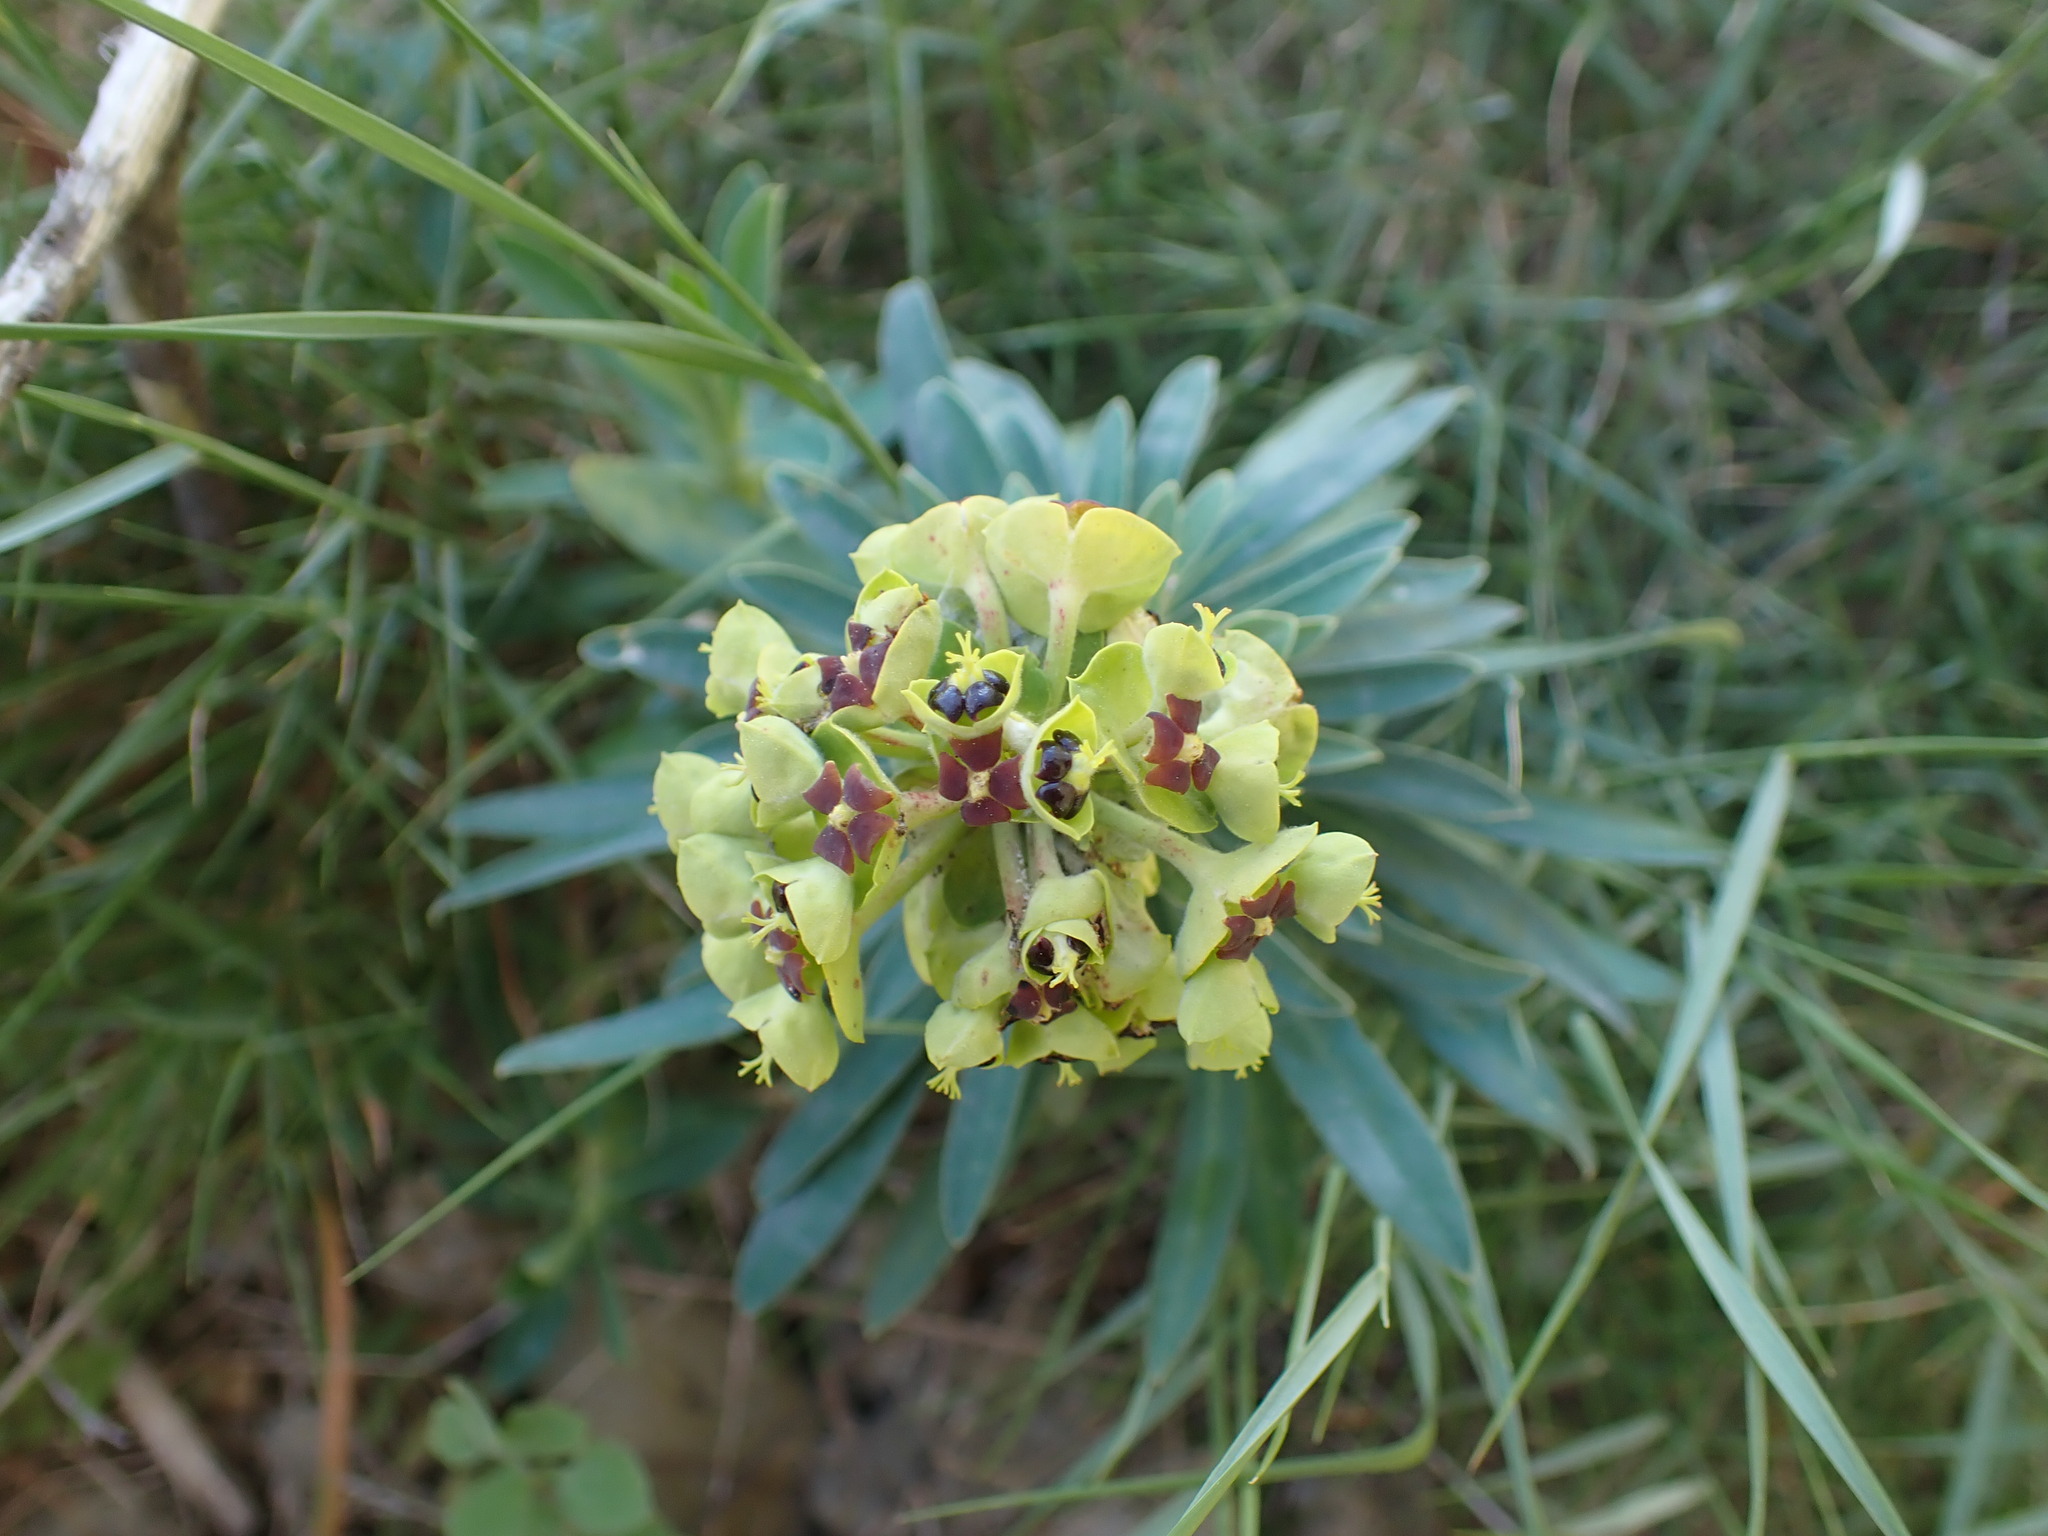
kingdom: Plantae
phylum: Tracheophyta
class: Magnoliopsida
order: Malpighiales
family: Euphorbiaceae
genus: Euphorbia
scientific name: Euphorbia characias
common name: Mediterranean spurge
